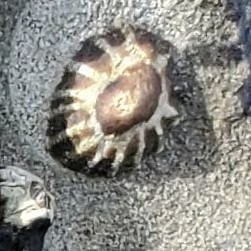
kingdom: Animalia
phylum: Mollusca
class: Gastropoda
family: Lottiidae
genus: Lottia
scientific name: Lottia scabra
